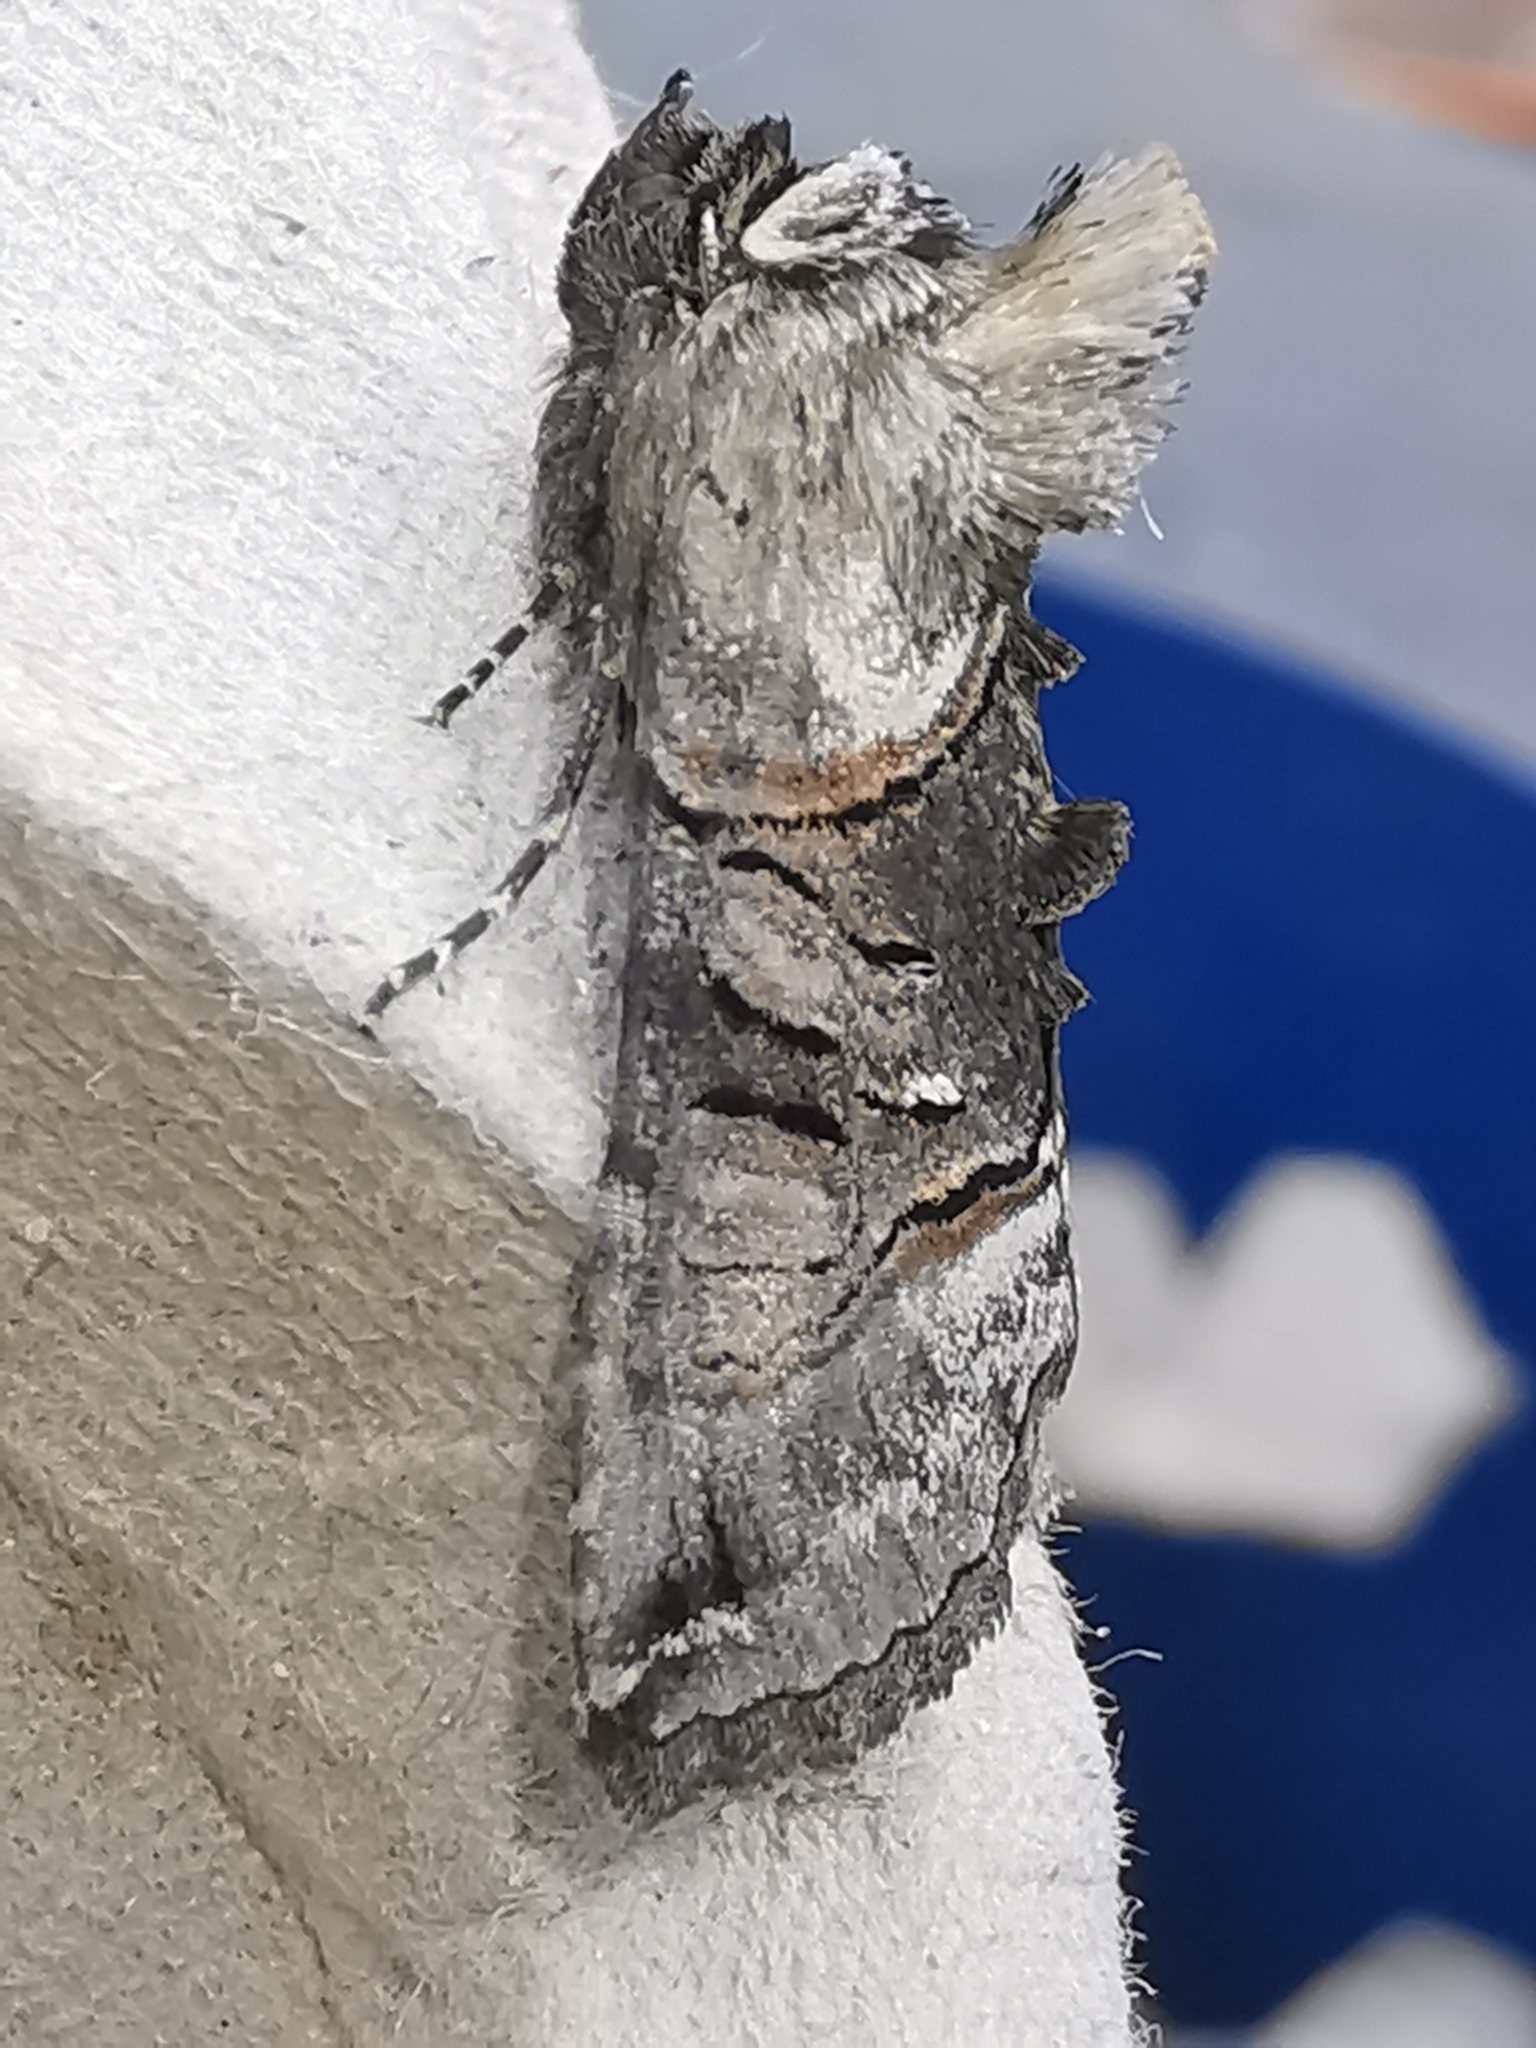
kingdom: Animalia
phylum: Arthropoda
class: Insecta
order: Lepidoptera
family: Noctuidae
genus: Abrostola
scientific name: Abrostola tripartita
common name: Spectacle
